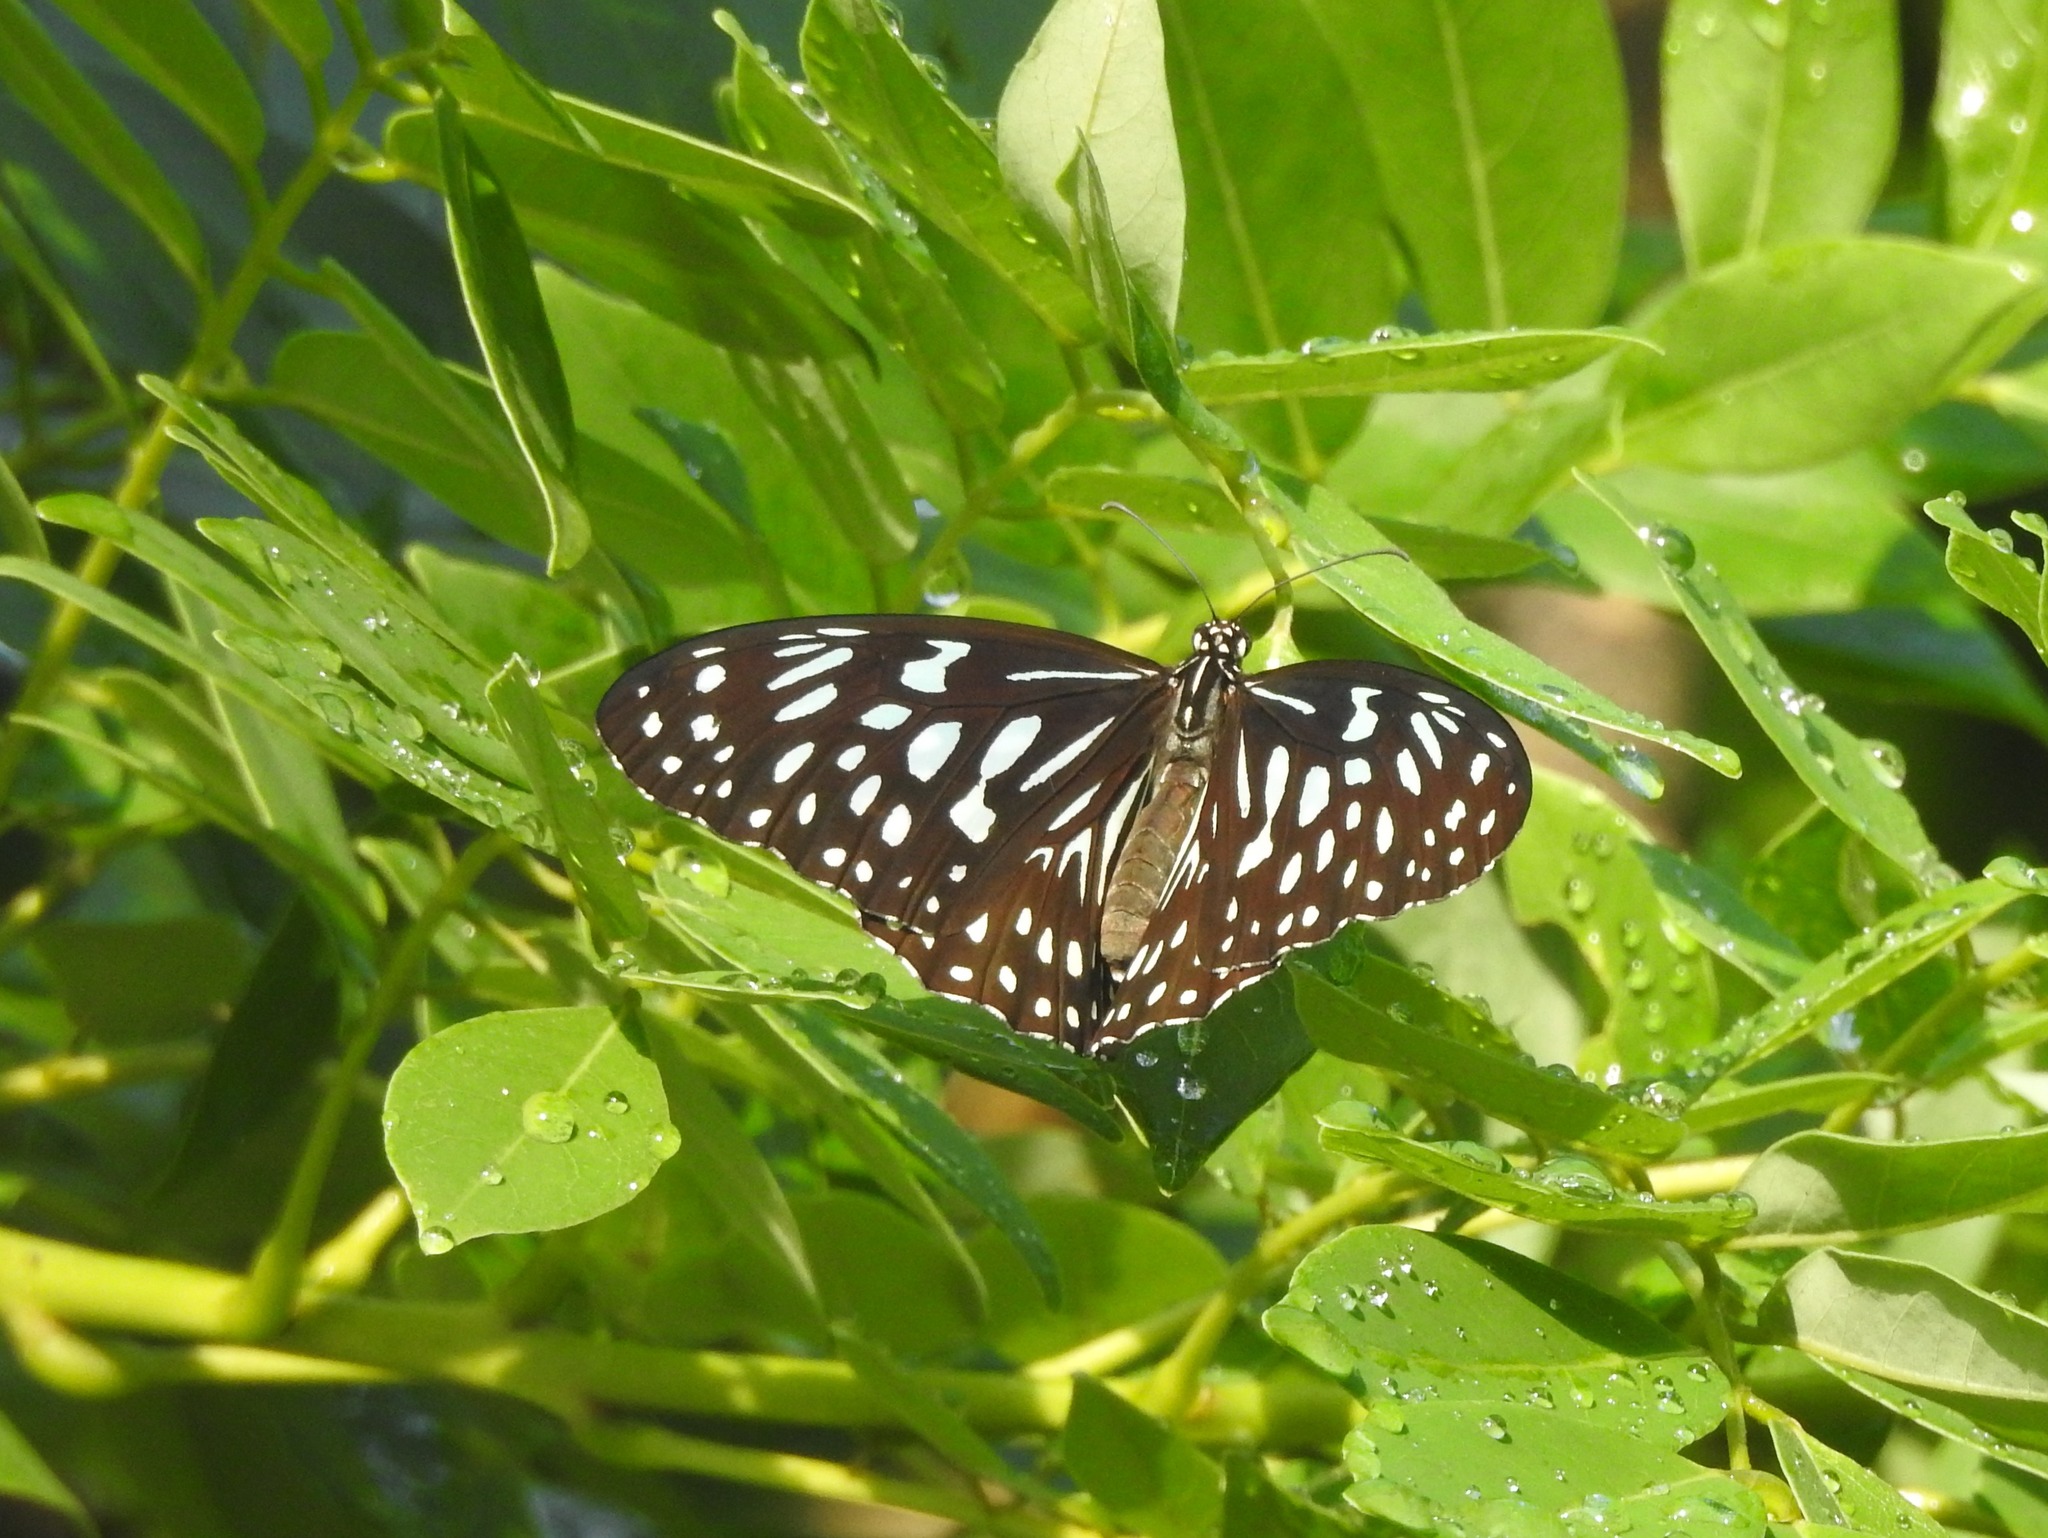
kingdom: Animalia
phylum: Arthropoda
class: Insecta
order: Lepidoptera
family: Nymphalidae
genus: Tirumala
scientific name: Tirumala septentrionis
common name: Dark blue tiger butterfly
